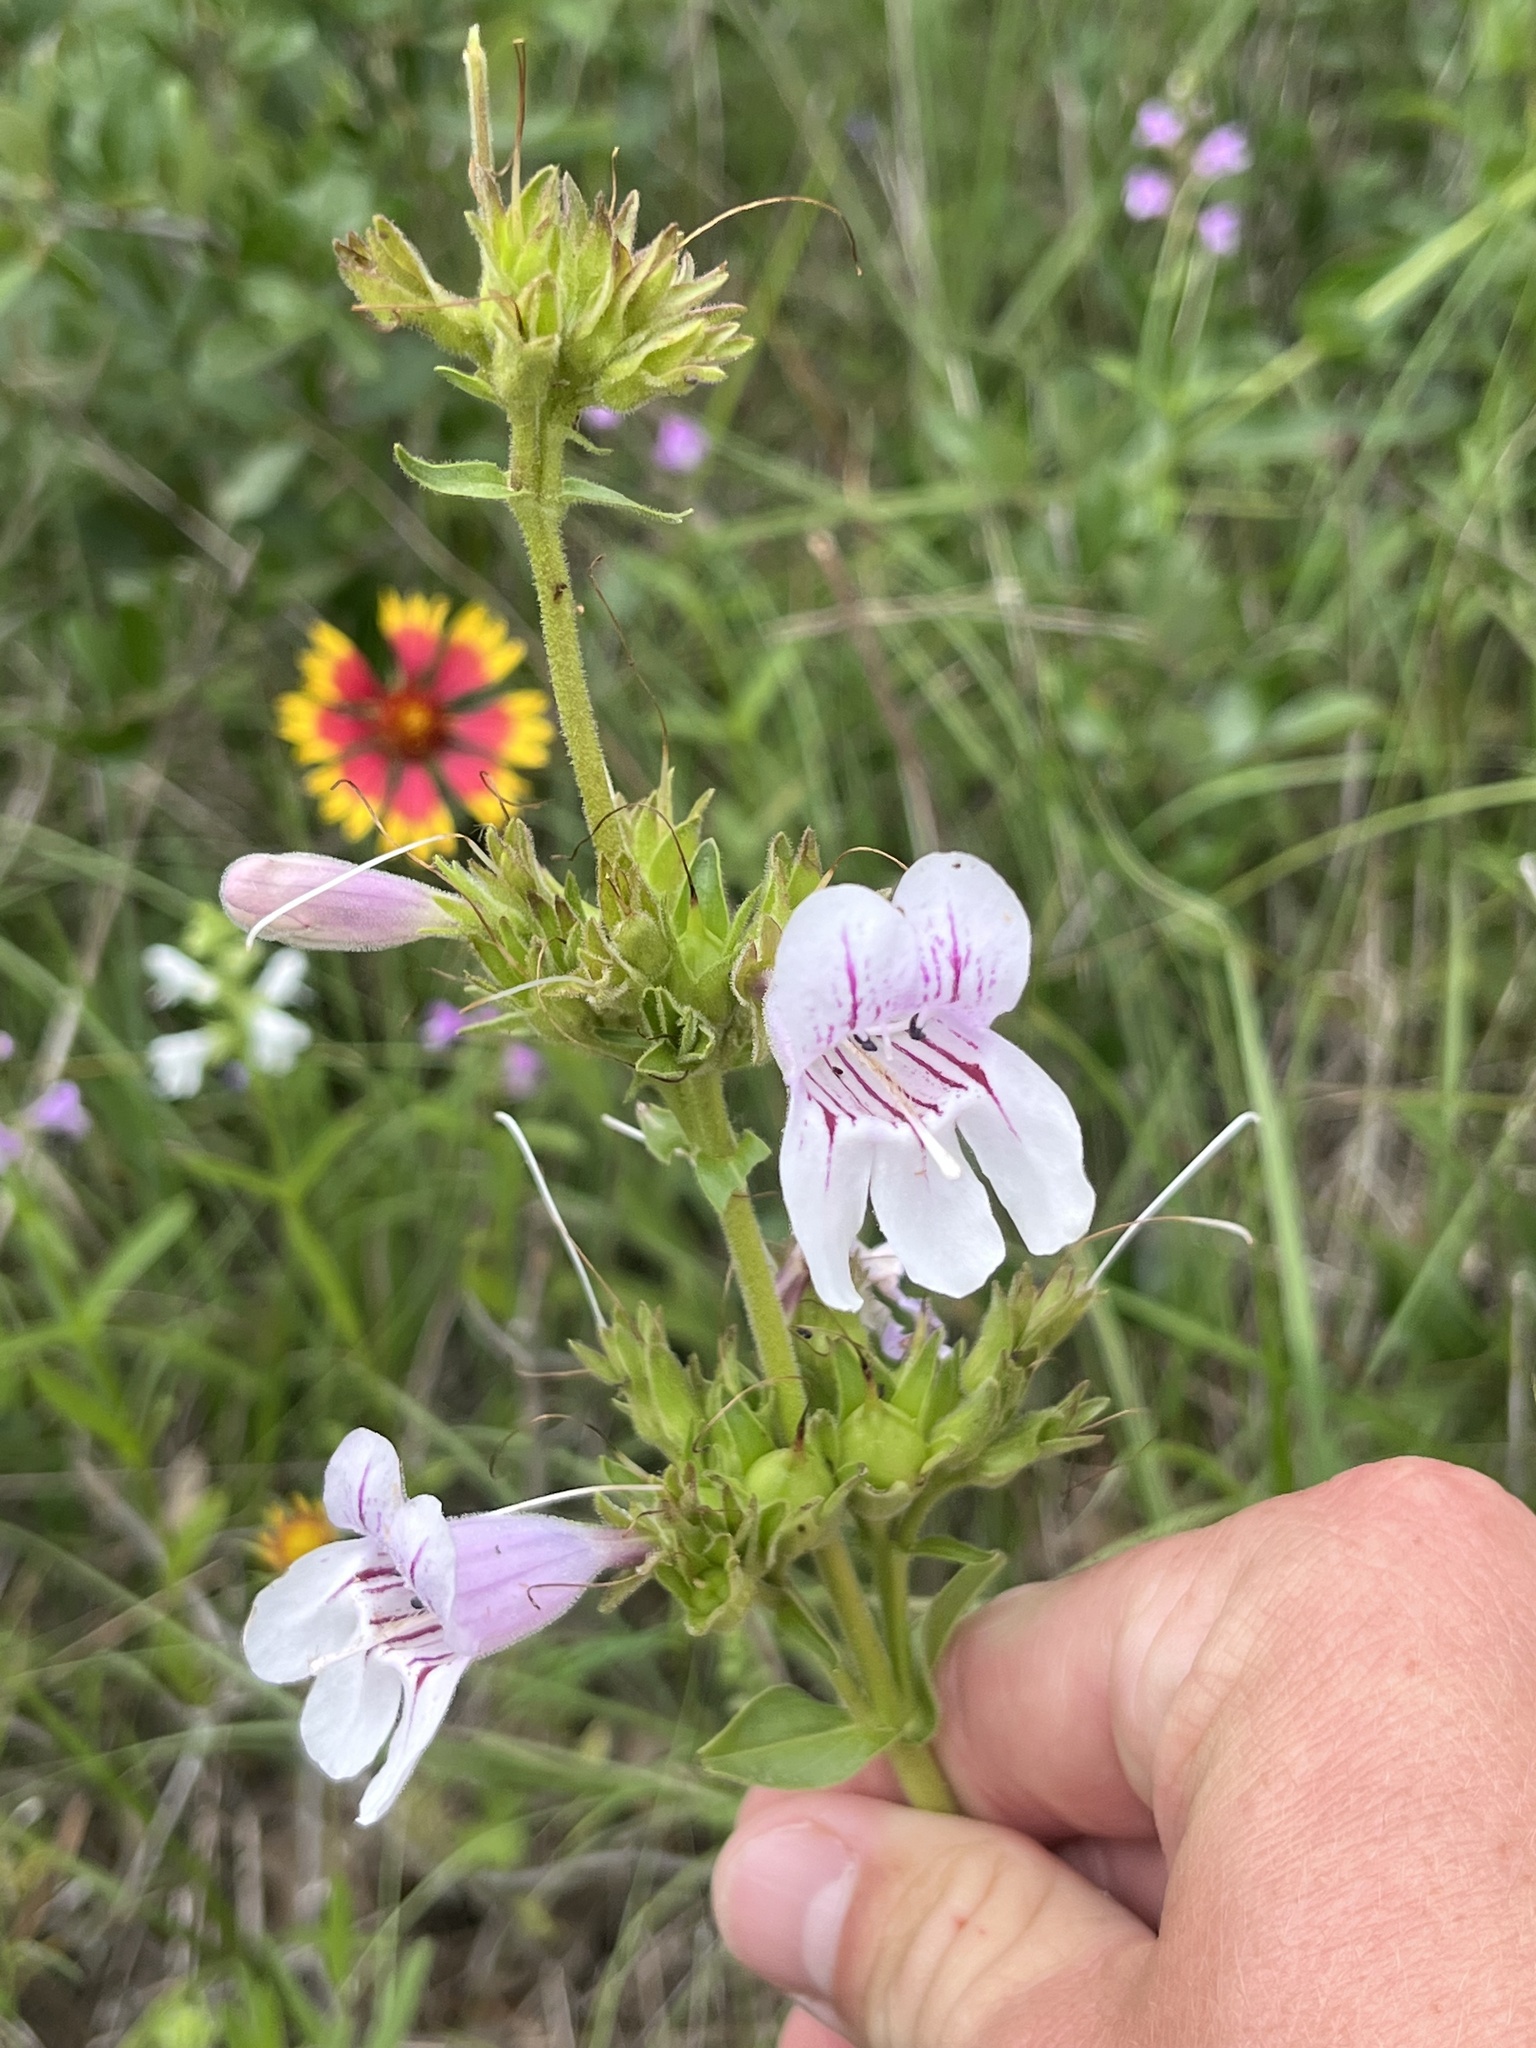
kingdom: Plantae
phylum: Tracheophyta
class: Magnoliopsida
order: Lamiales
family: Plantaginaceae
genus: Penstemon
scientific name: Penstemon cobaea
